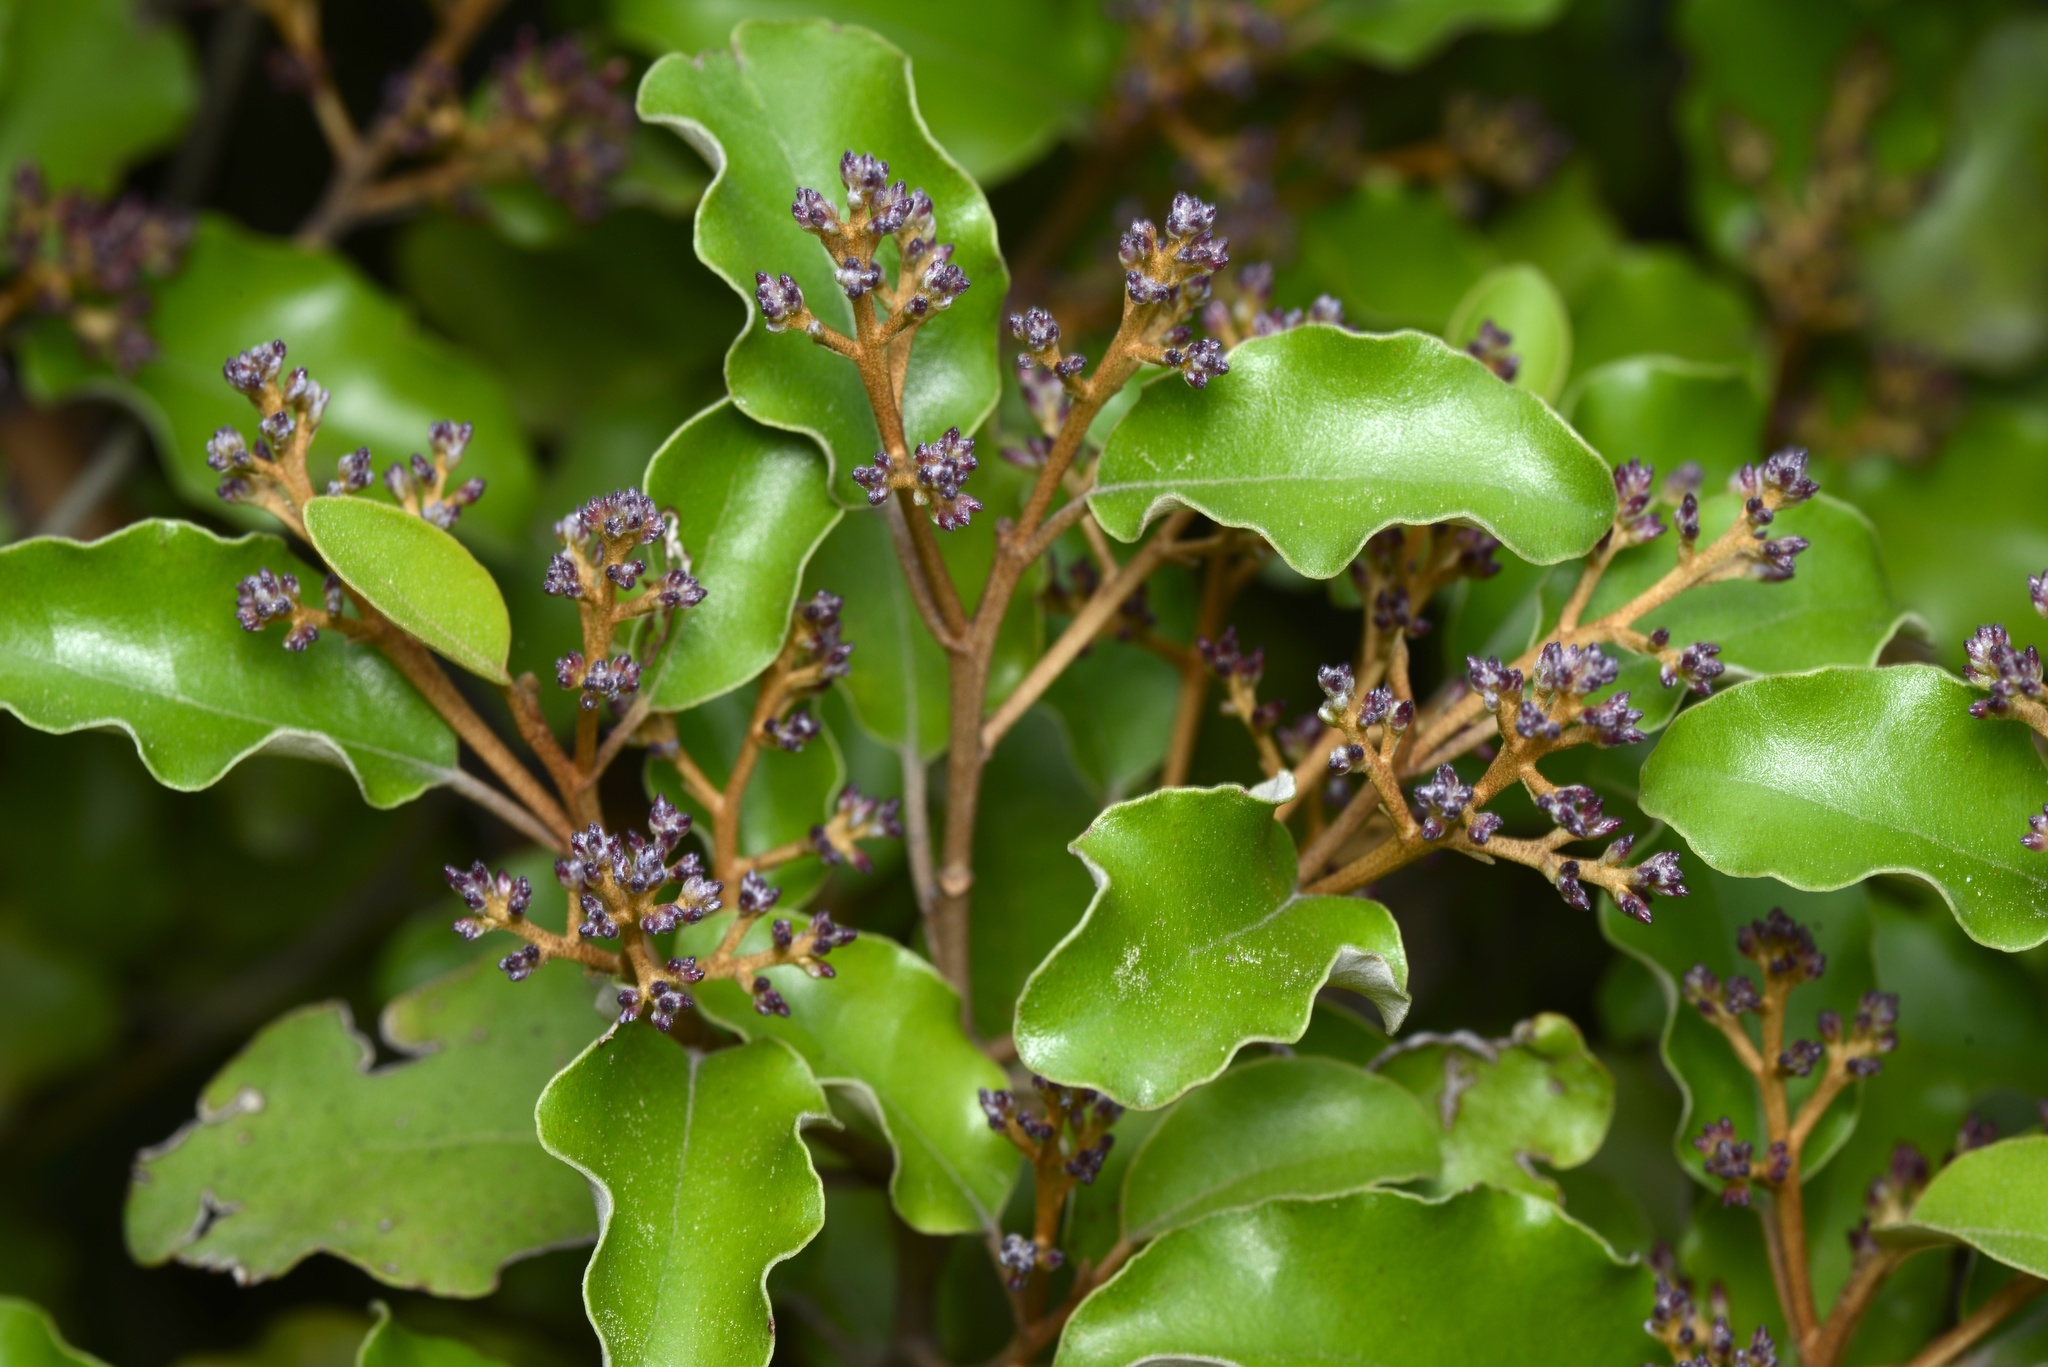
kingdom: Plantae
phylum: Tracheophyta
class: Magnoliopsida
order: Asterales
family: Asteraceae
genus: Olearia
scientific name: Olearia paniculata
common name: Akiraho
